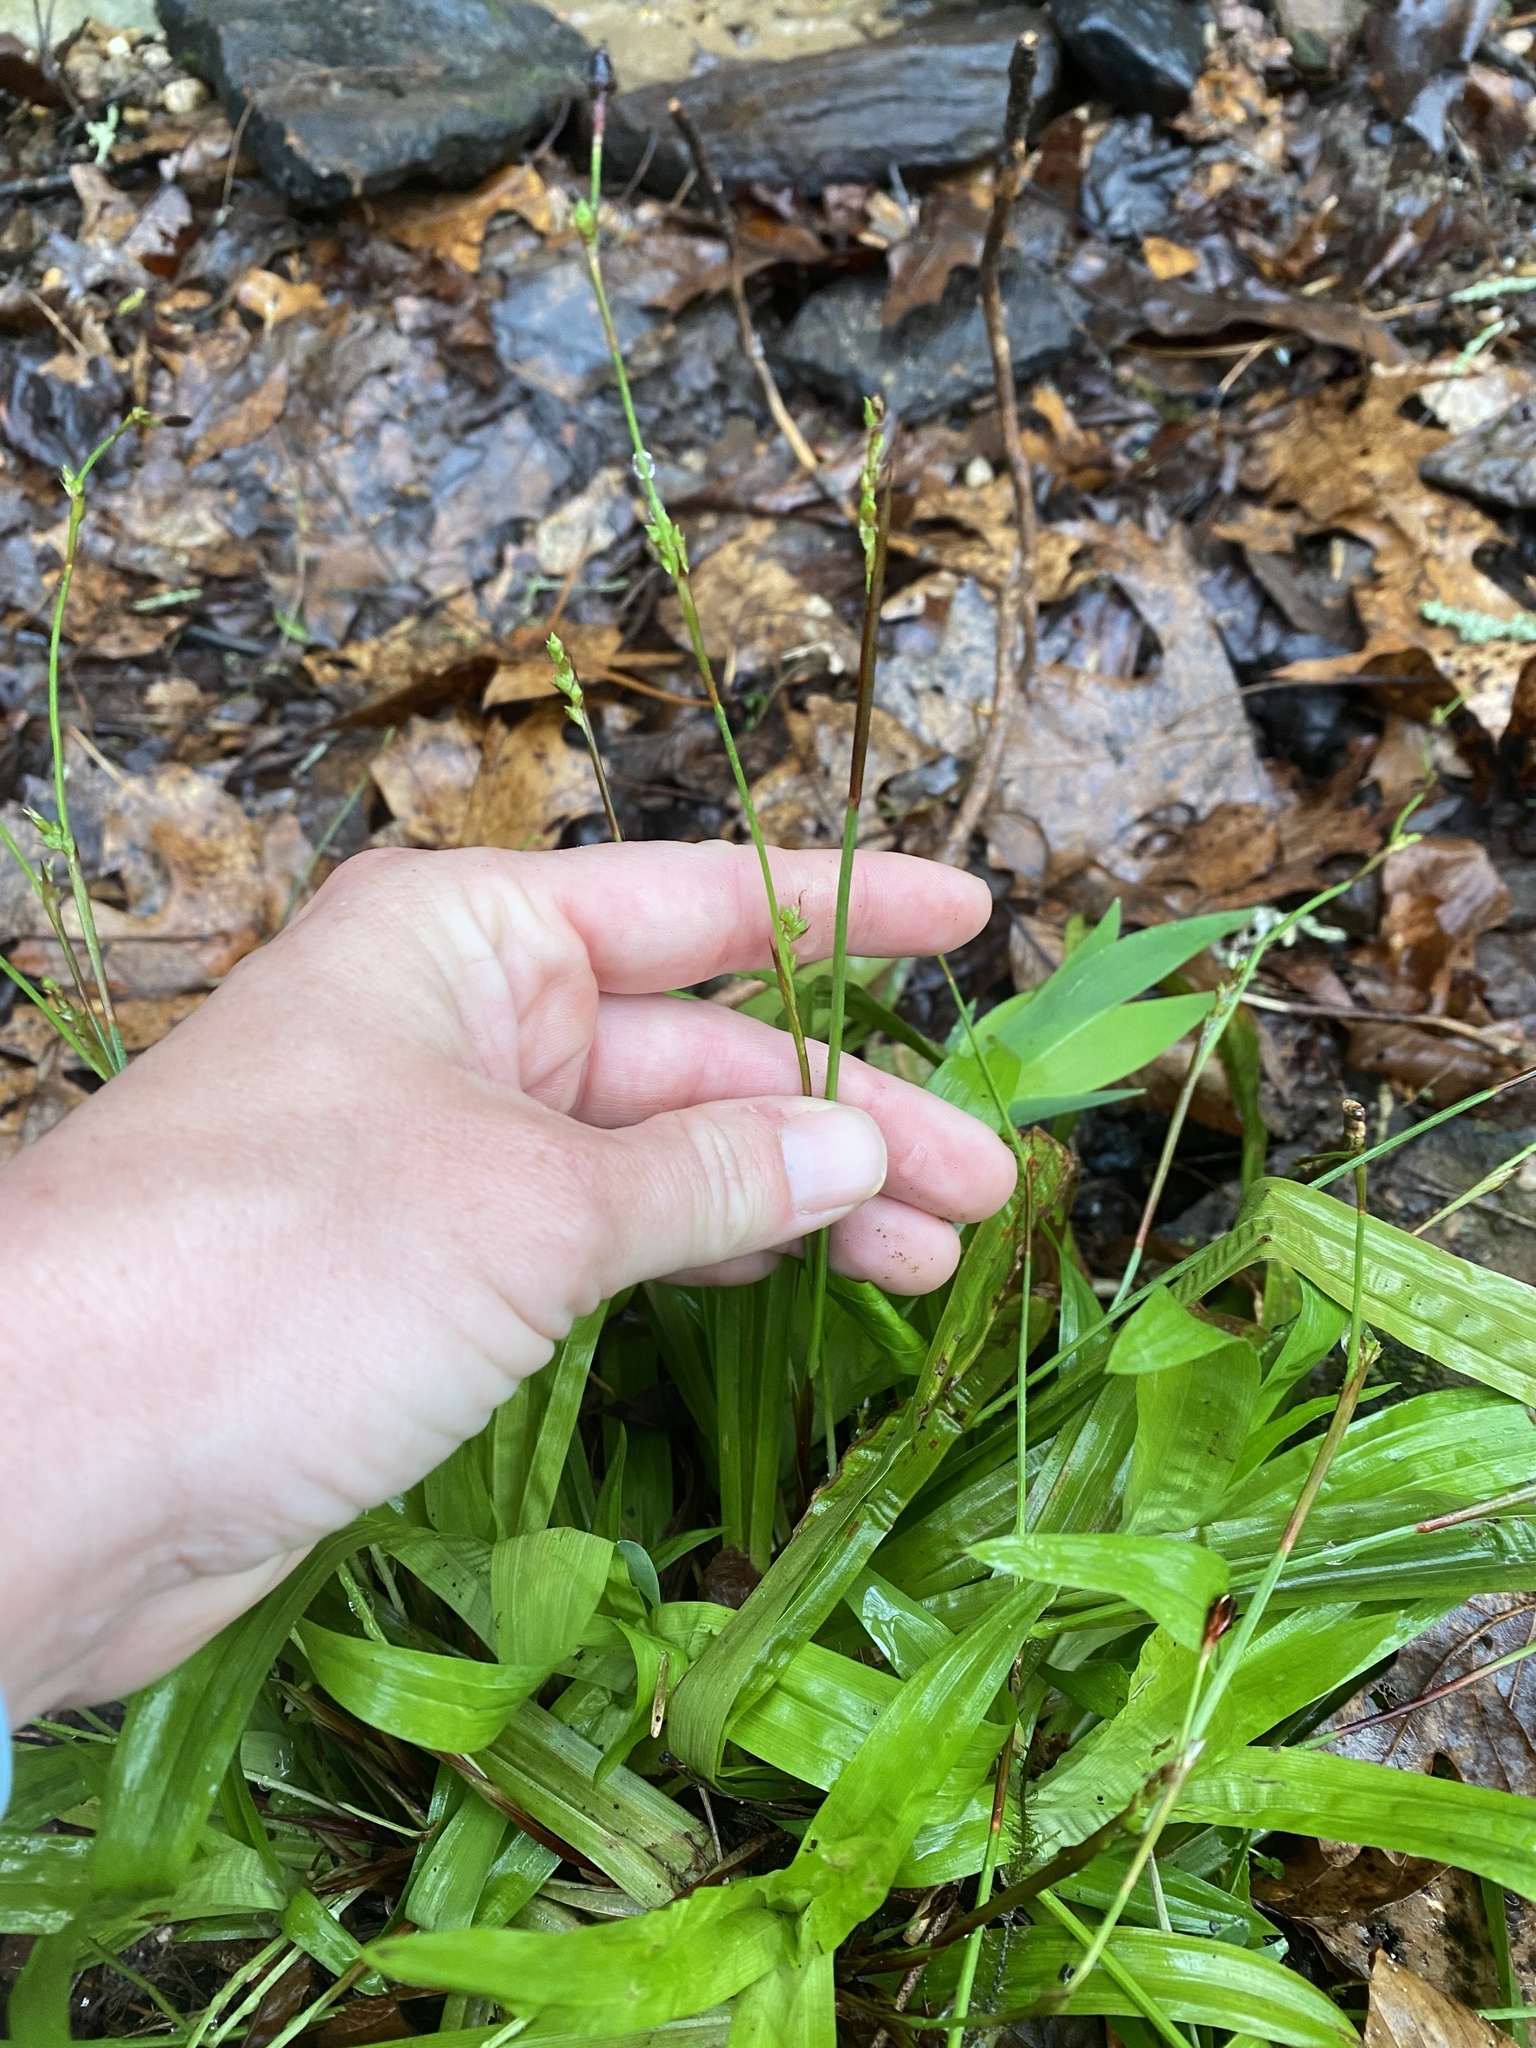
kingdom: Plantae
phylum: Tracheophyta
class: Liliopsida
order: Poales
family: Cyperaceae
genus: Carex
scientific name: Carex plantaginea
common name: Plantain-leaved sedge
